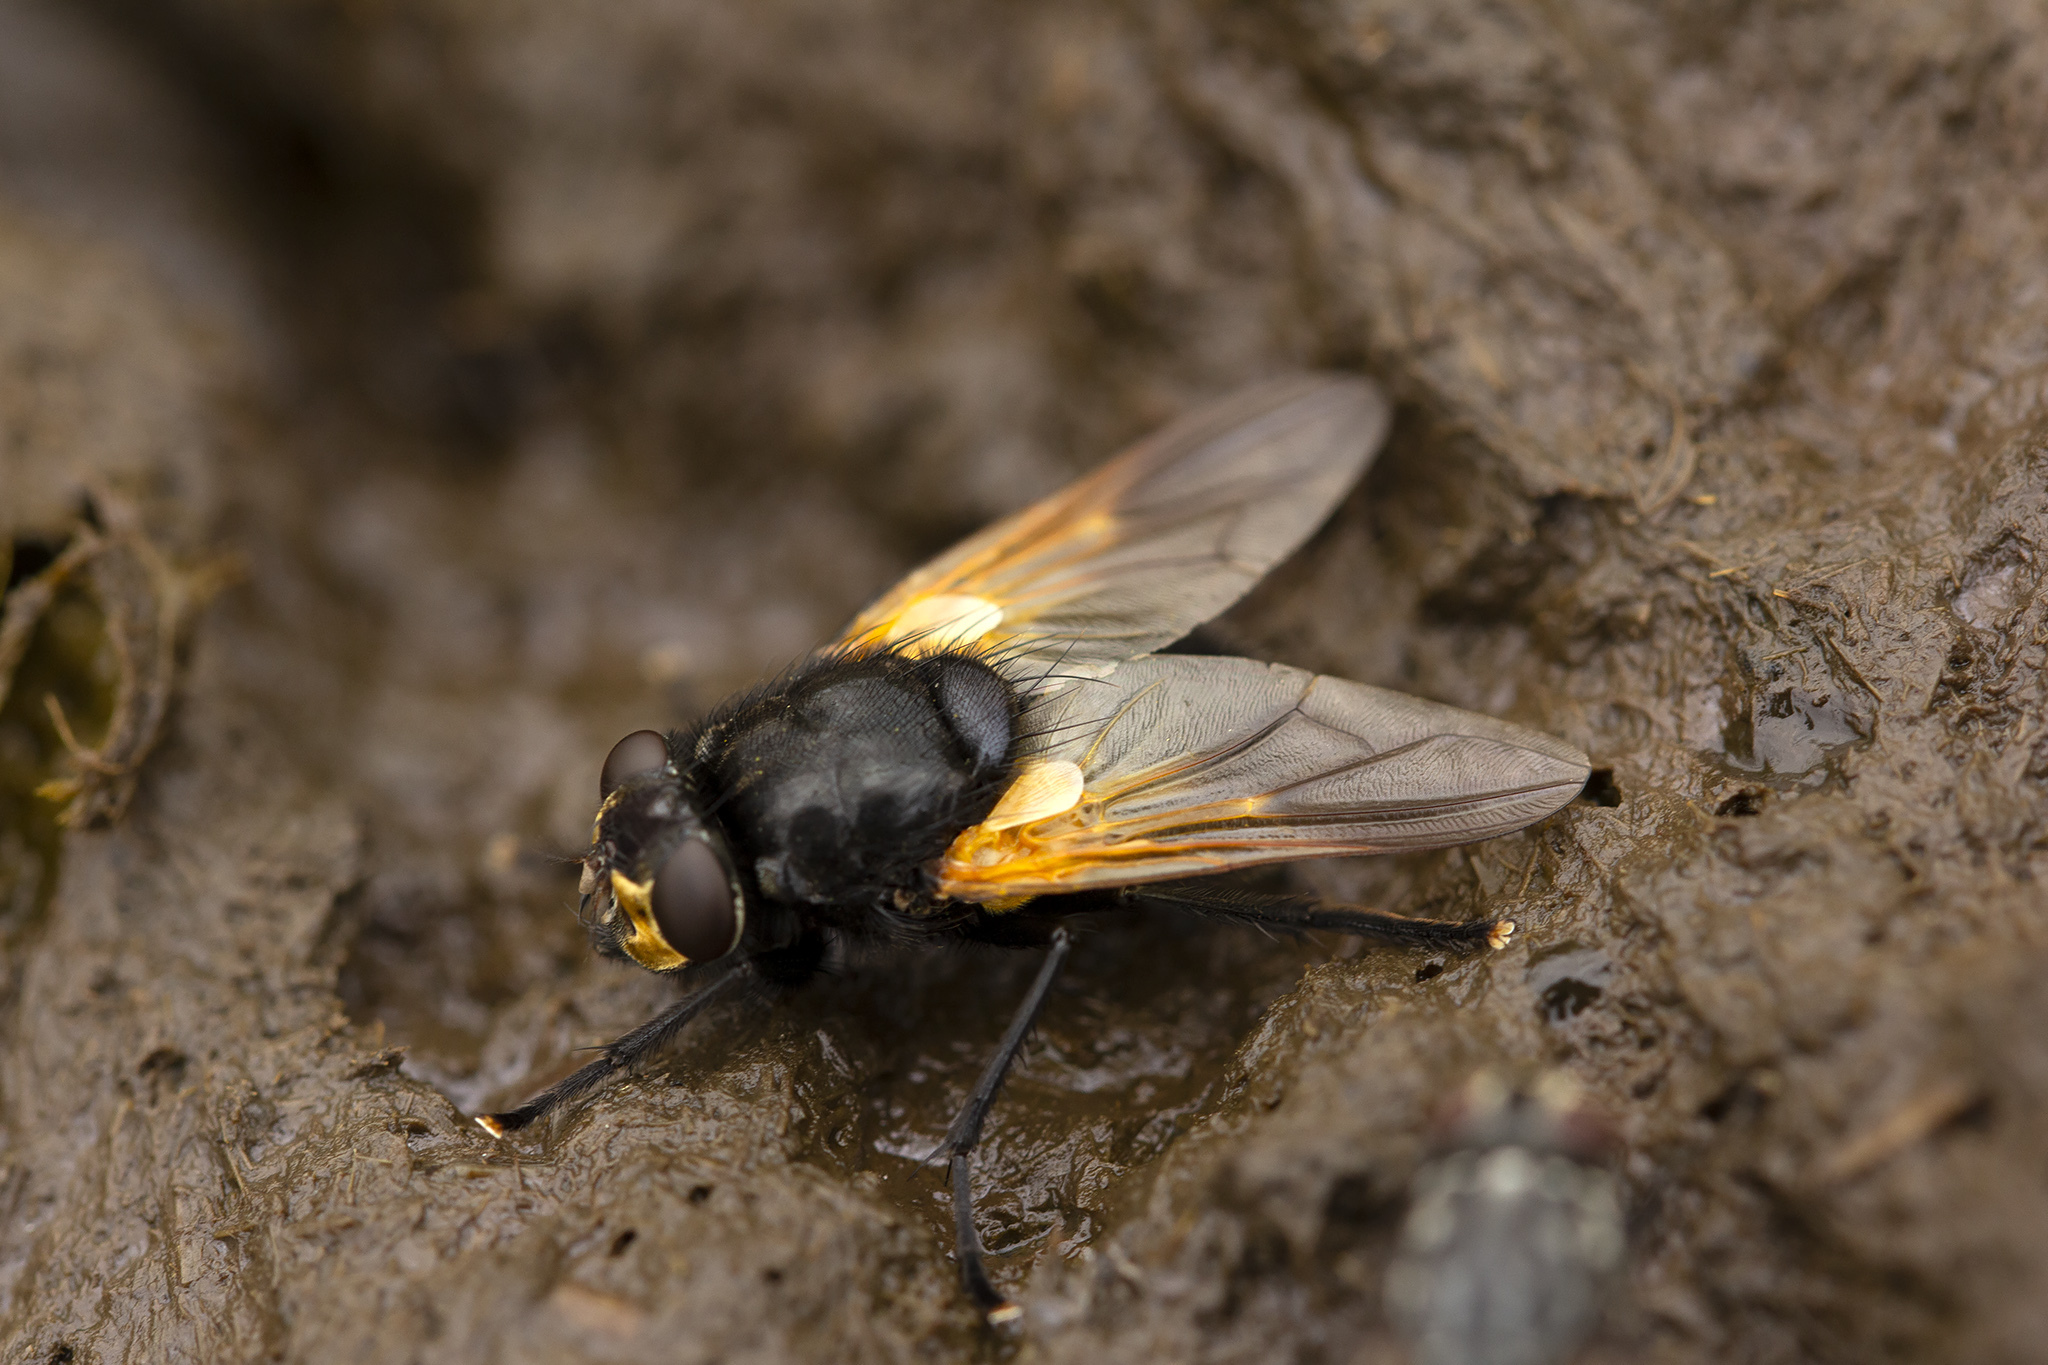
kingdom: Animalia
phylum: Arthropoda
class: Insecta
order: Diptera
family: Muscidae
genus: Mesembrina
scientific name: Mesembrina meridiana
